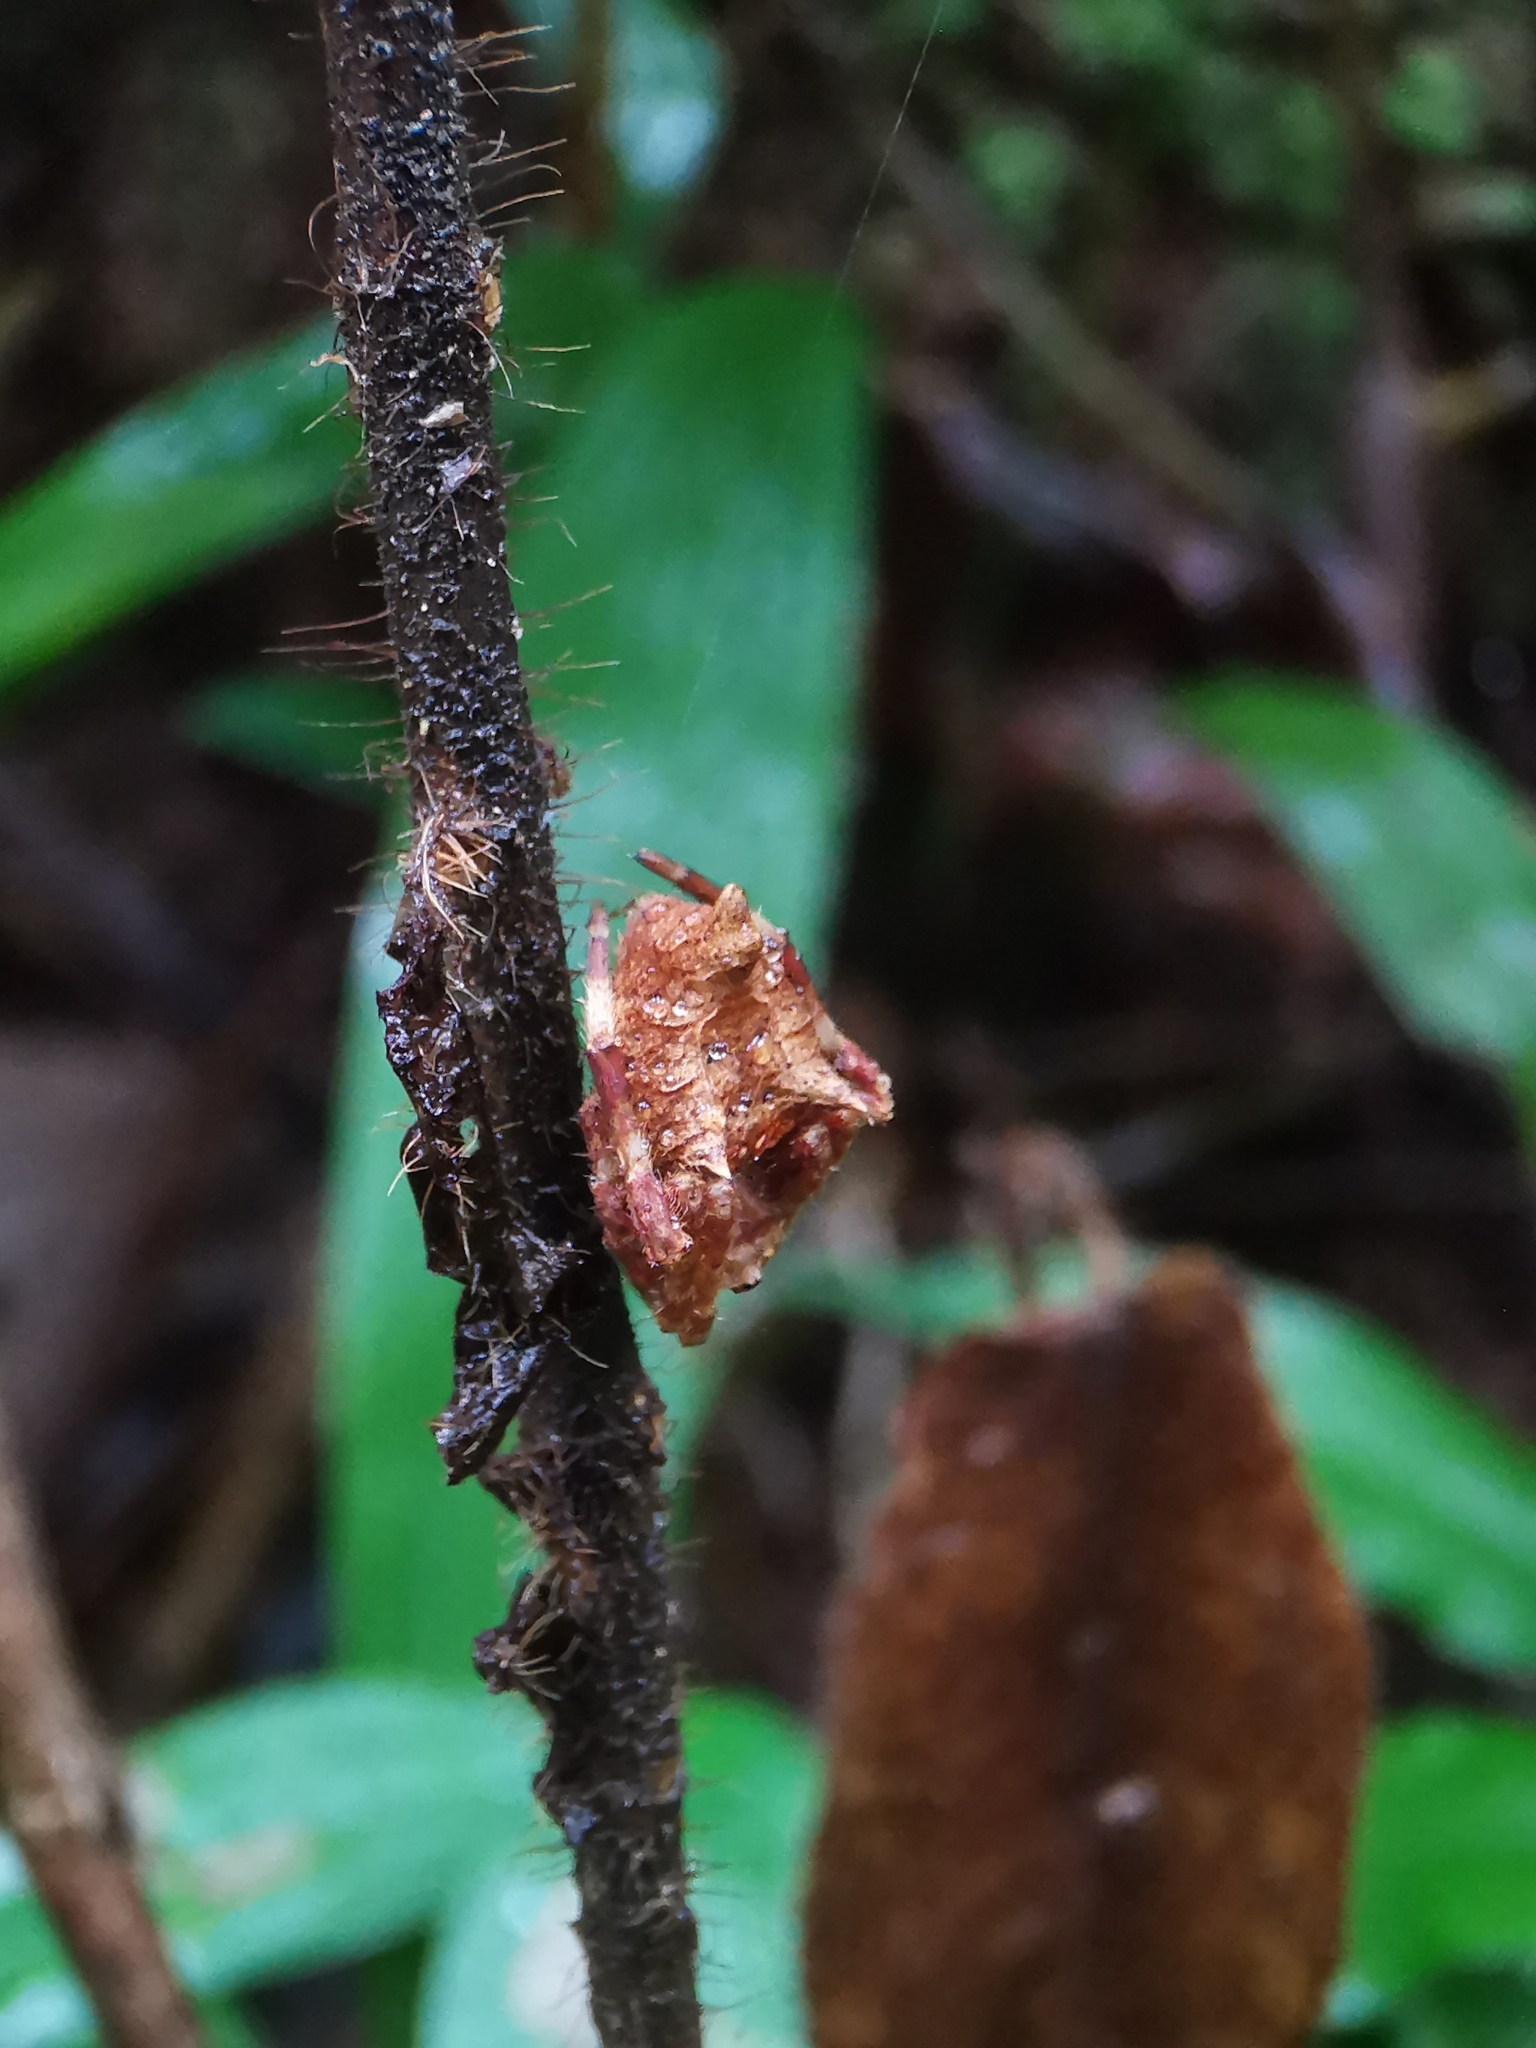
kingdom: Animalia
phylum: Arthropoda
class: Arachnida
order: Araneae
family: Araneidae
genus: Parawixia
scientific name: Parawixia dehaani
